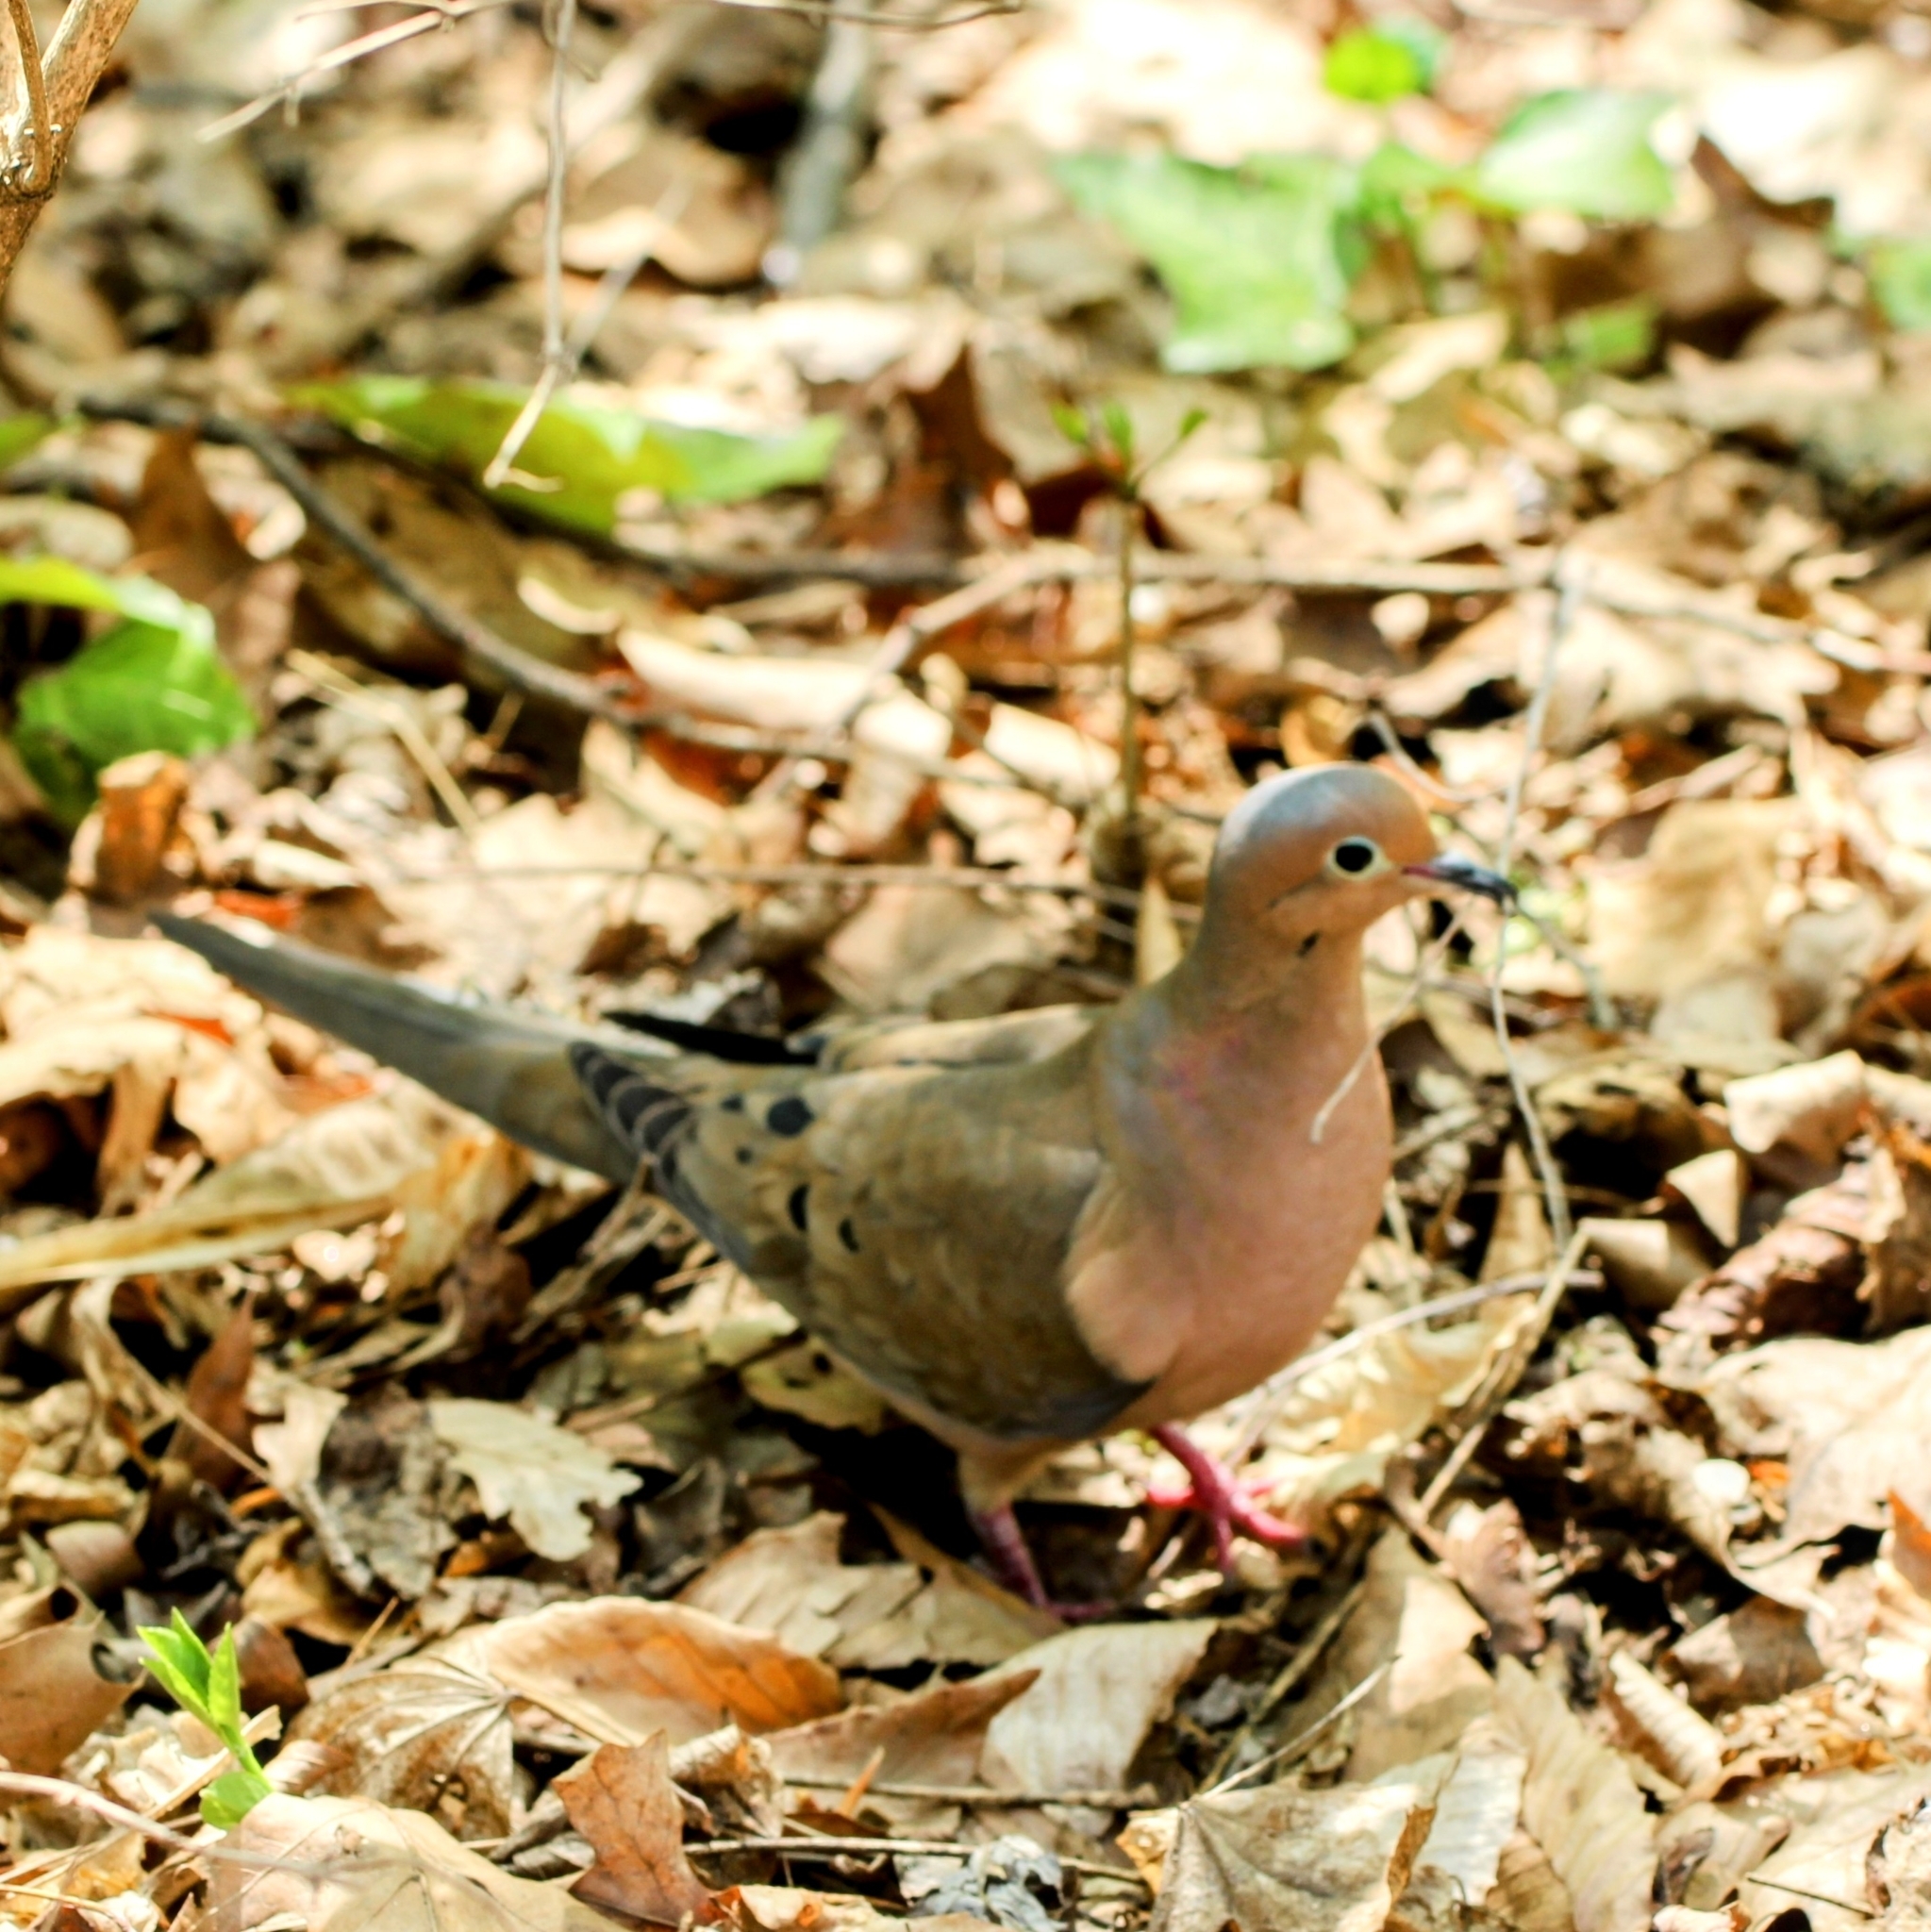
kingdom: Animalia
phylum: Chordata
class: Aves
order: Columbiformes
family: Columbidae
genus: Zenaida
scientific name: Zenaida macroura
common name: Mourning dove
